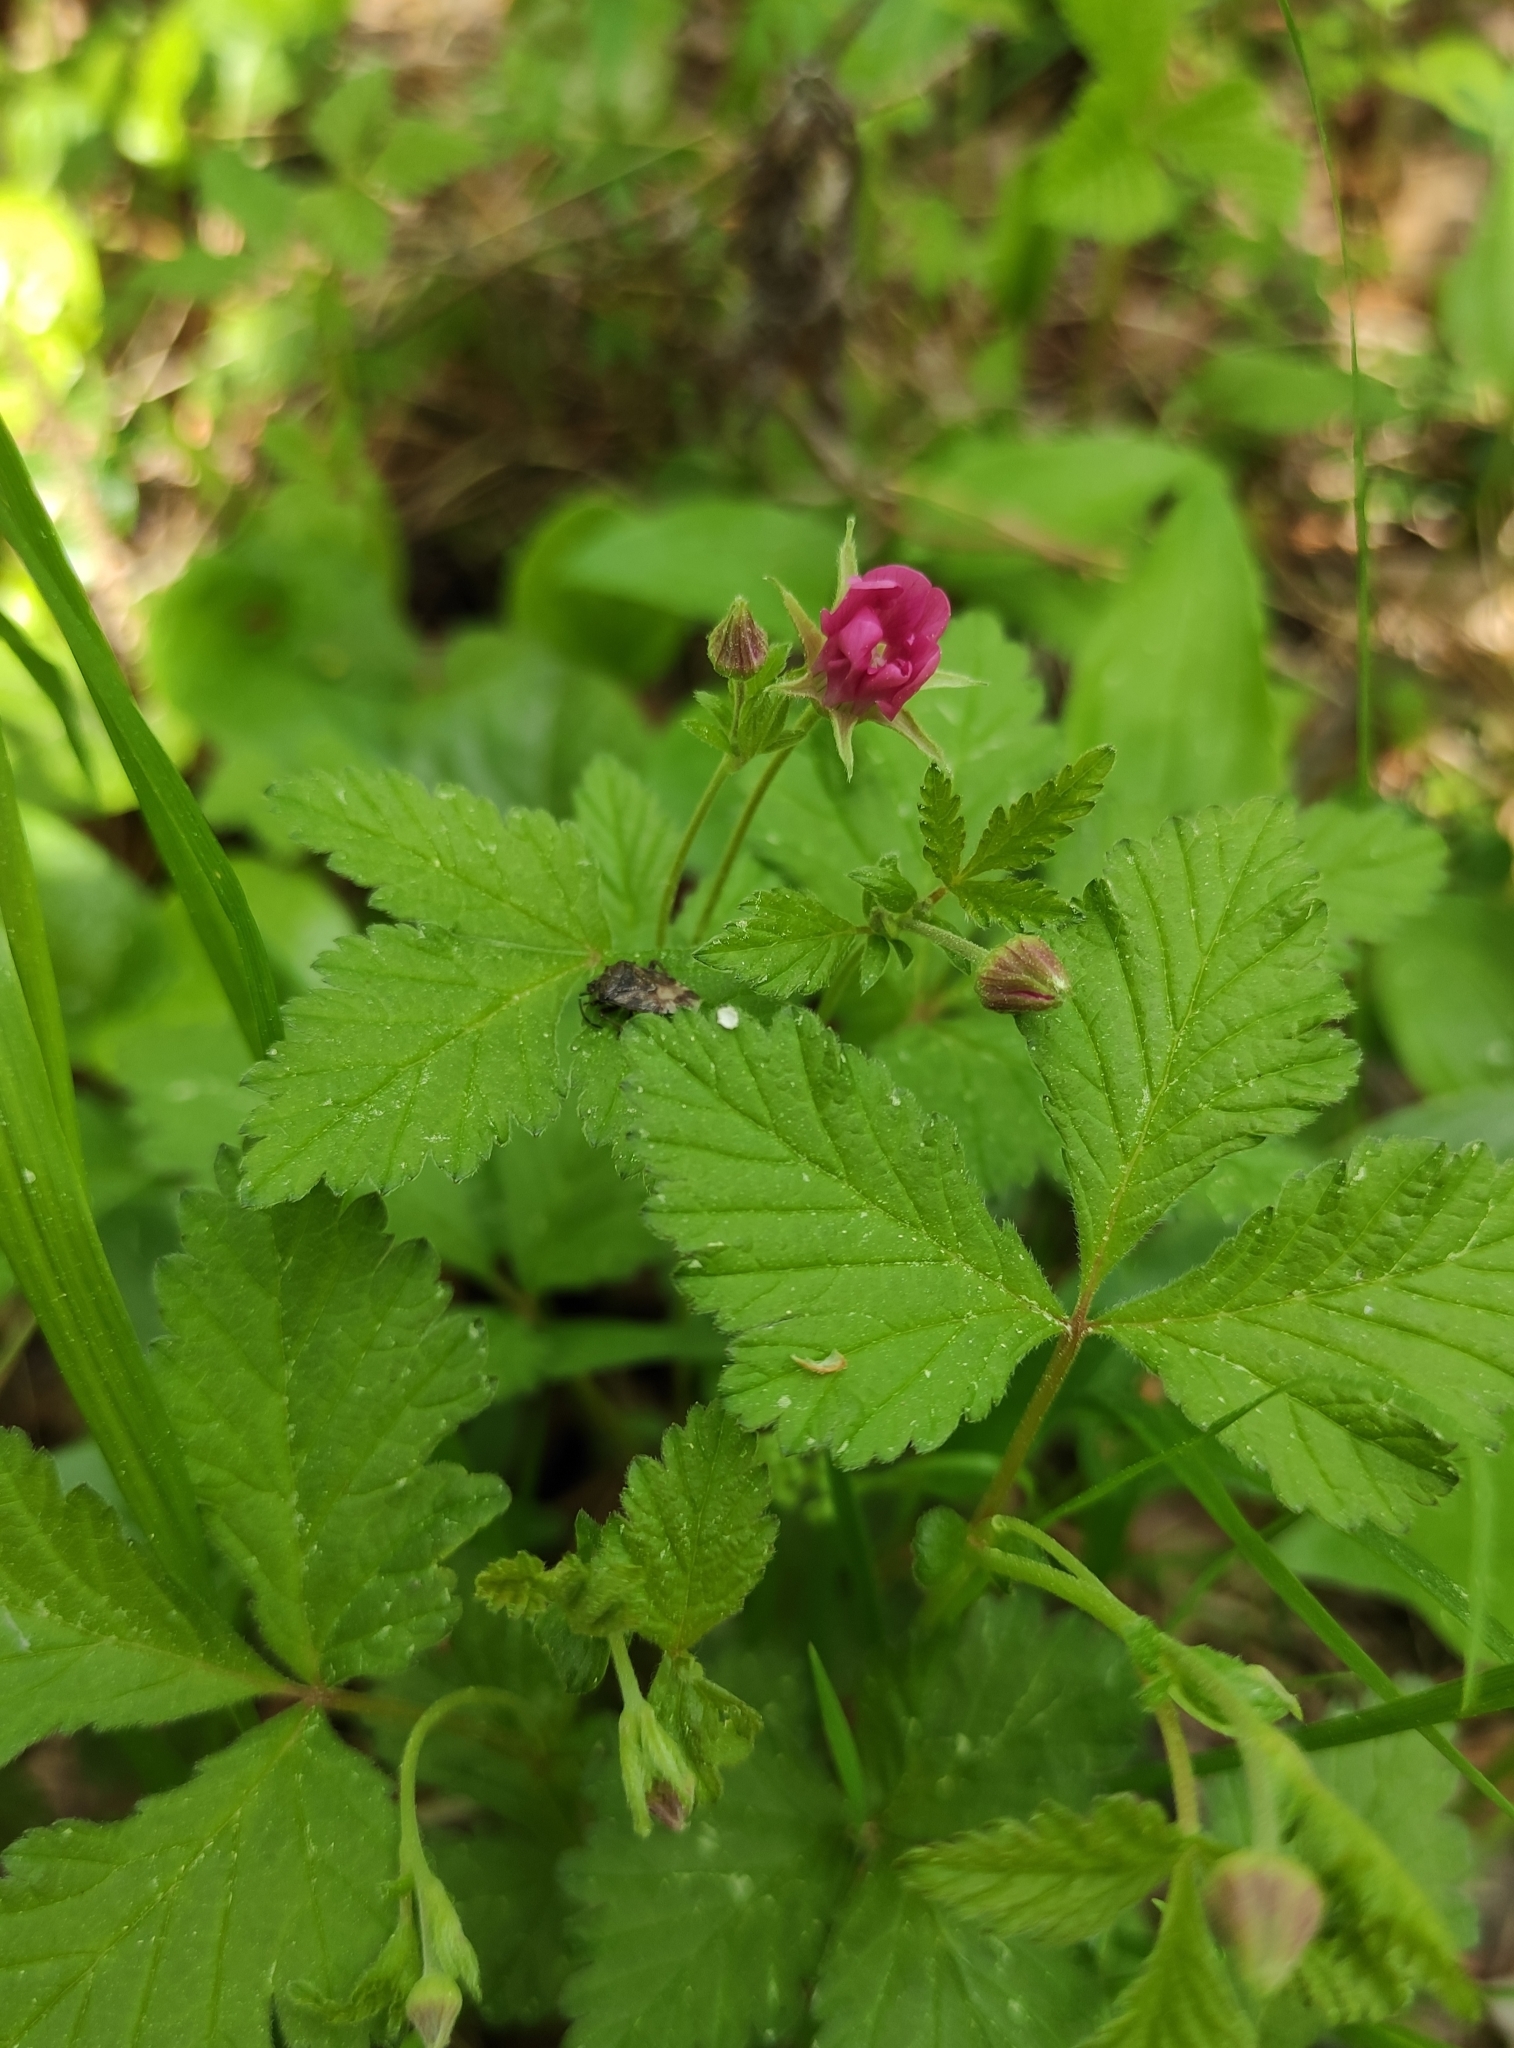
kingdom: Plantae
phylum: Tracheophyta
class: Magnoliopsida
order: Rosales
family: Rosaceae
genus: Rubus
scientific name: Rubus arcticus
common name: Arctic bramble
